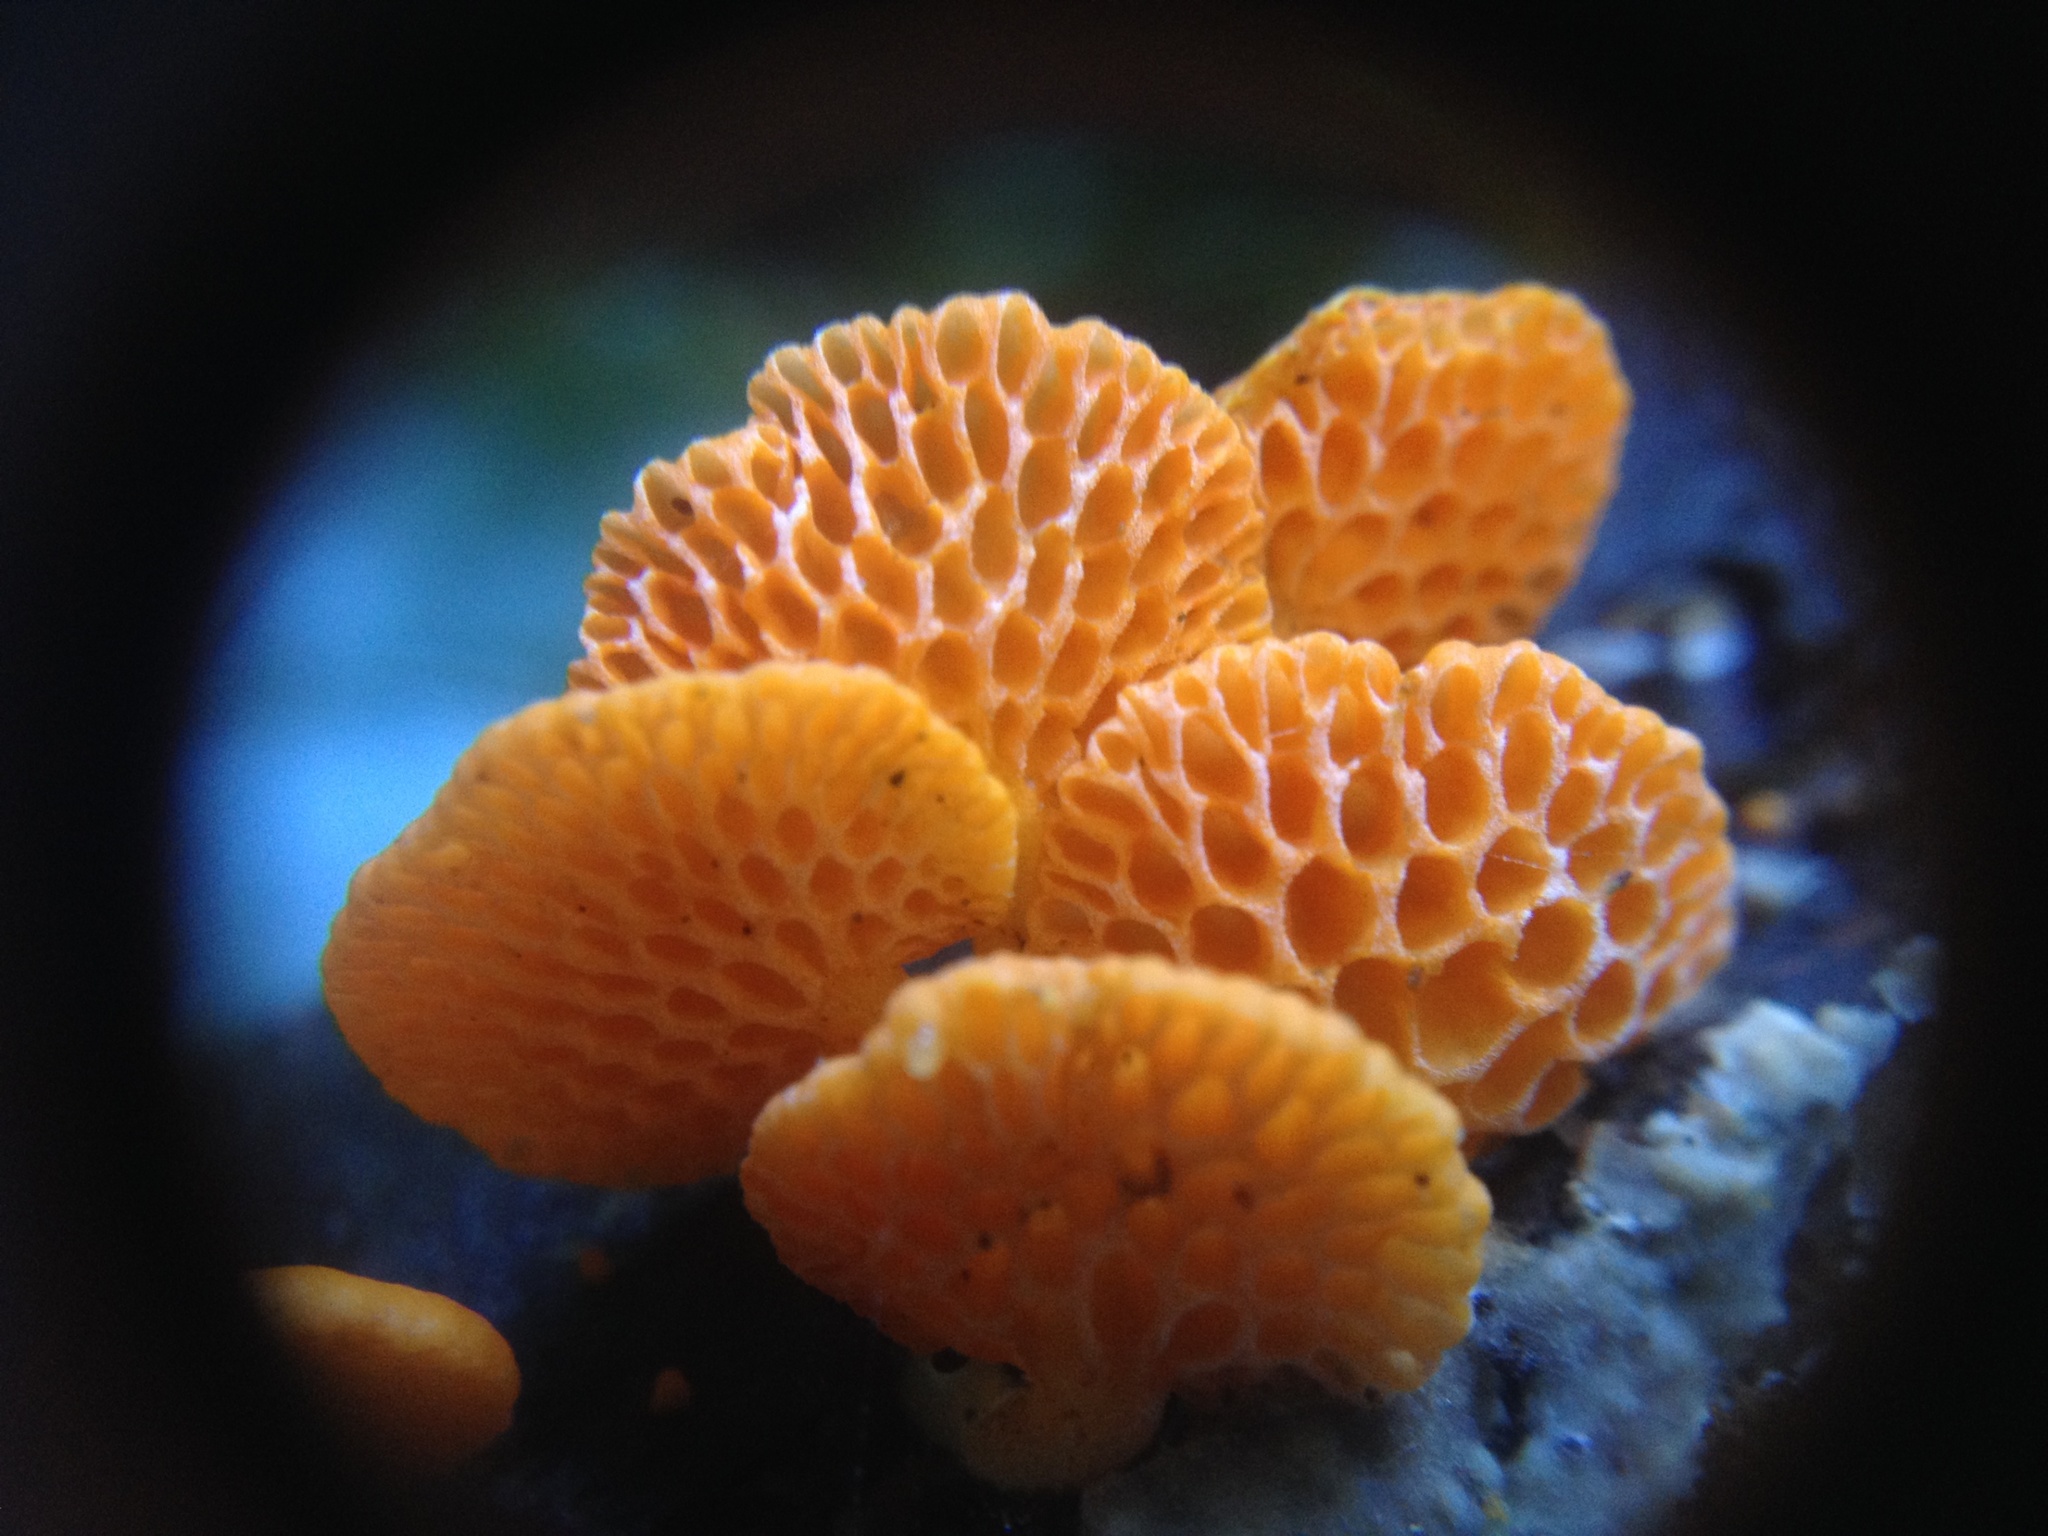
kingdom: Fungi
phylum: Basidiomycota
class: Agaricomycetes
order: Agaricales
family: Mycenaceae
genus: Favolaschia
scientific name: Favolaschia claudopus
